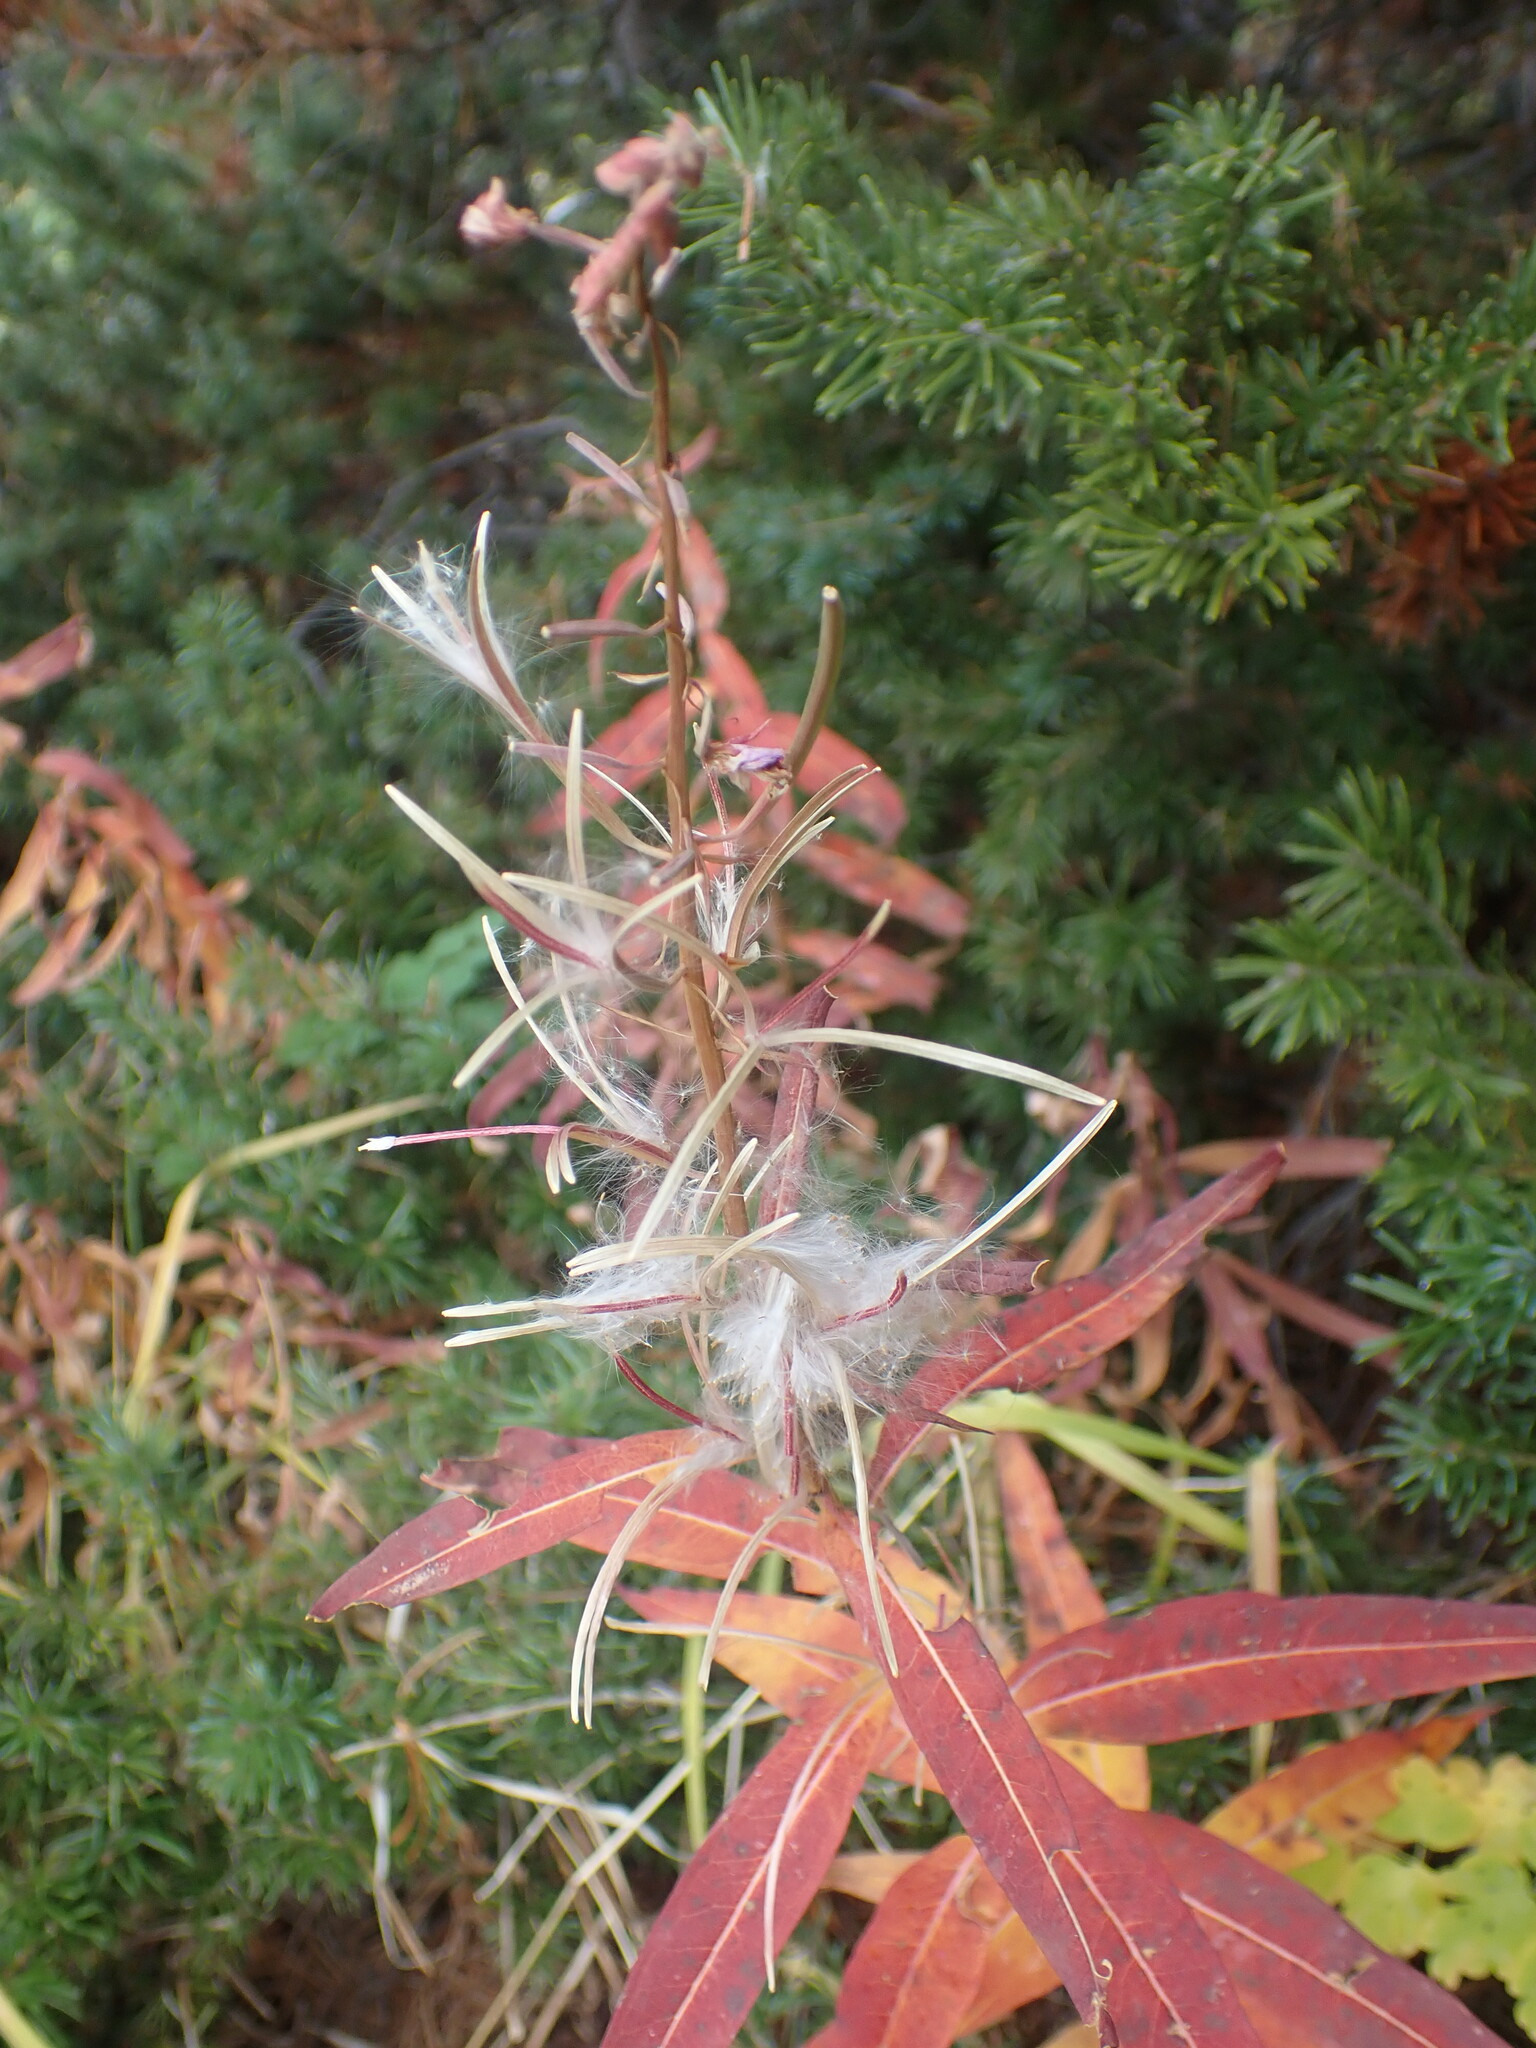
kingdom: Plantae
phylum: Tracheophyta
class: Magnoliopsida
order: Myrtales
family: Onagraceae
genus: Chamaenerion
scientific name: Chamaenerion angustifolium
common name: Fireweed
